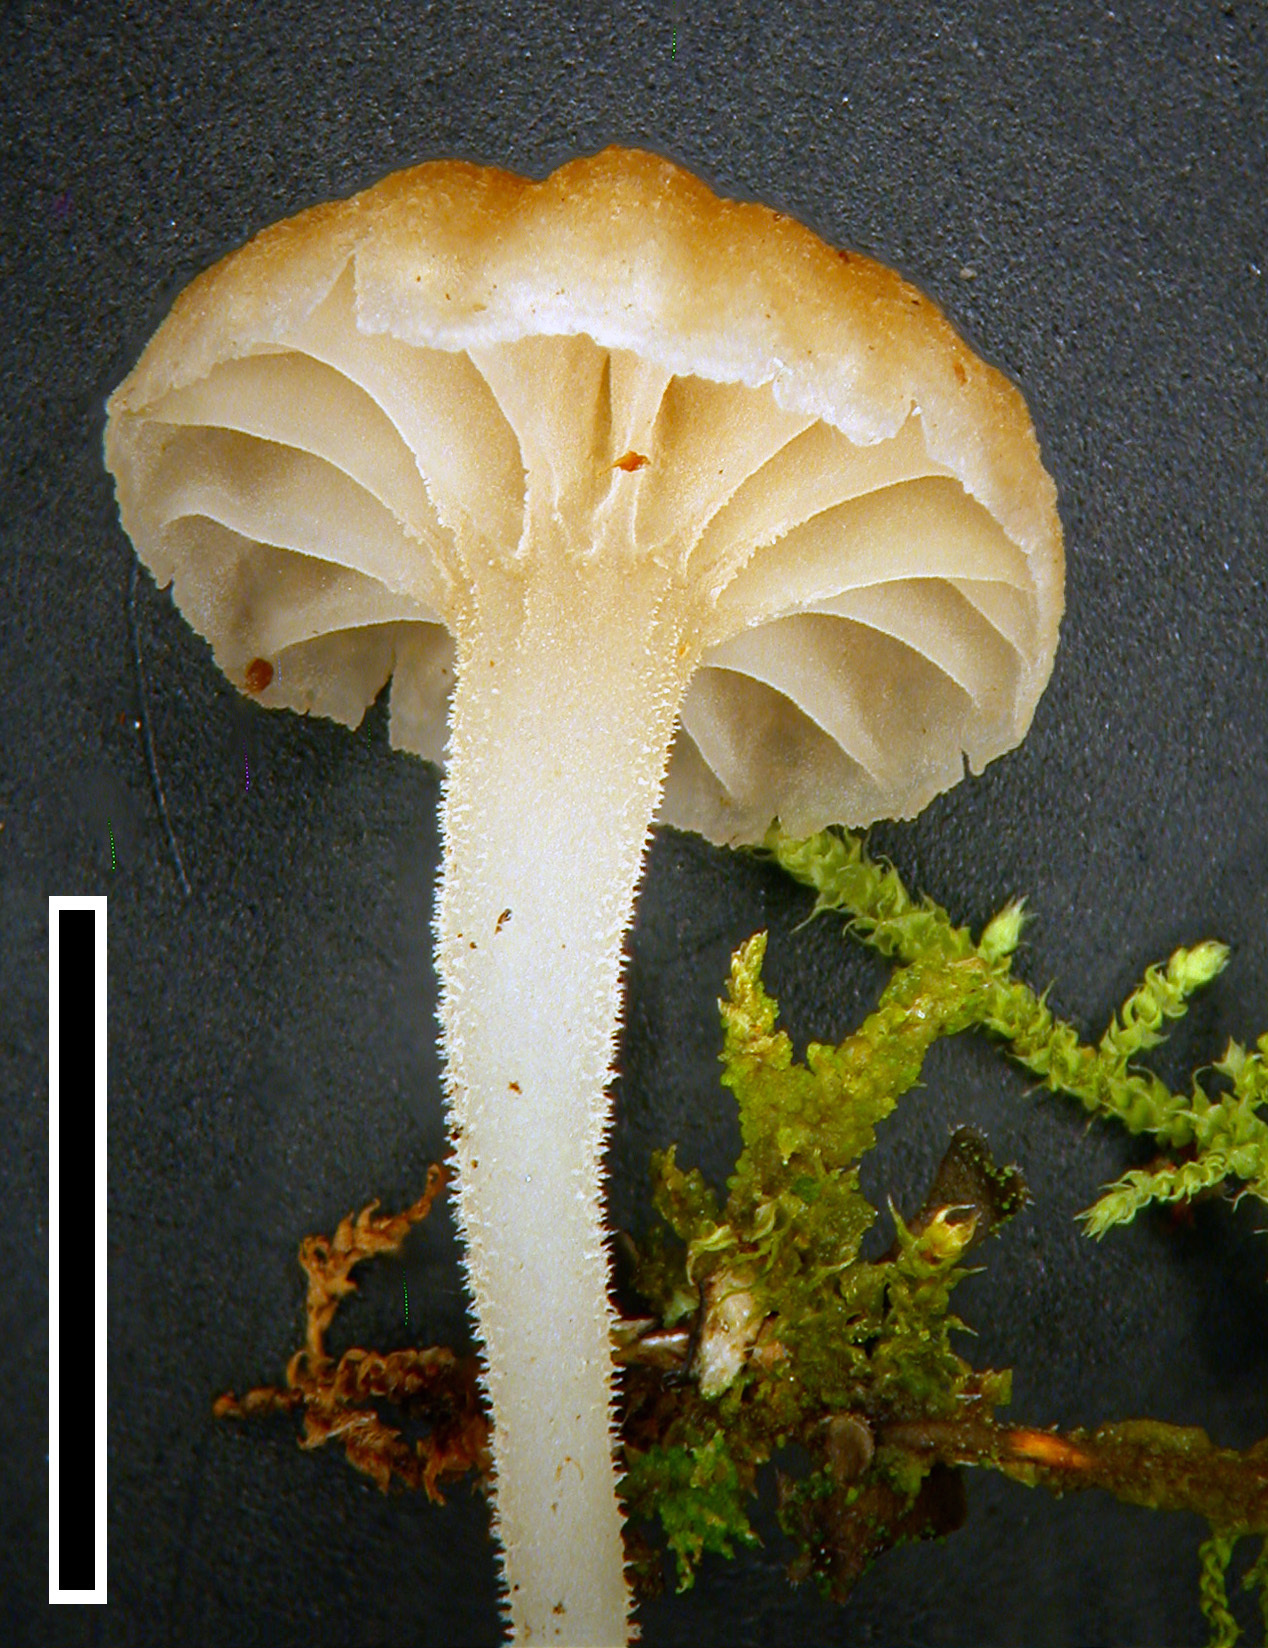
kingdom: Fungi
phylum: Basidiomycota
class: Agaricomycetes
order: Agaricales
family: Hygrophoraceae
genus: Lichenomphalia
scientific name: Lichenomphalia
